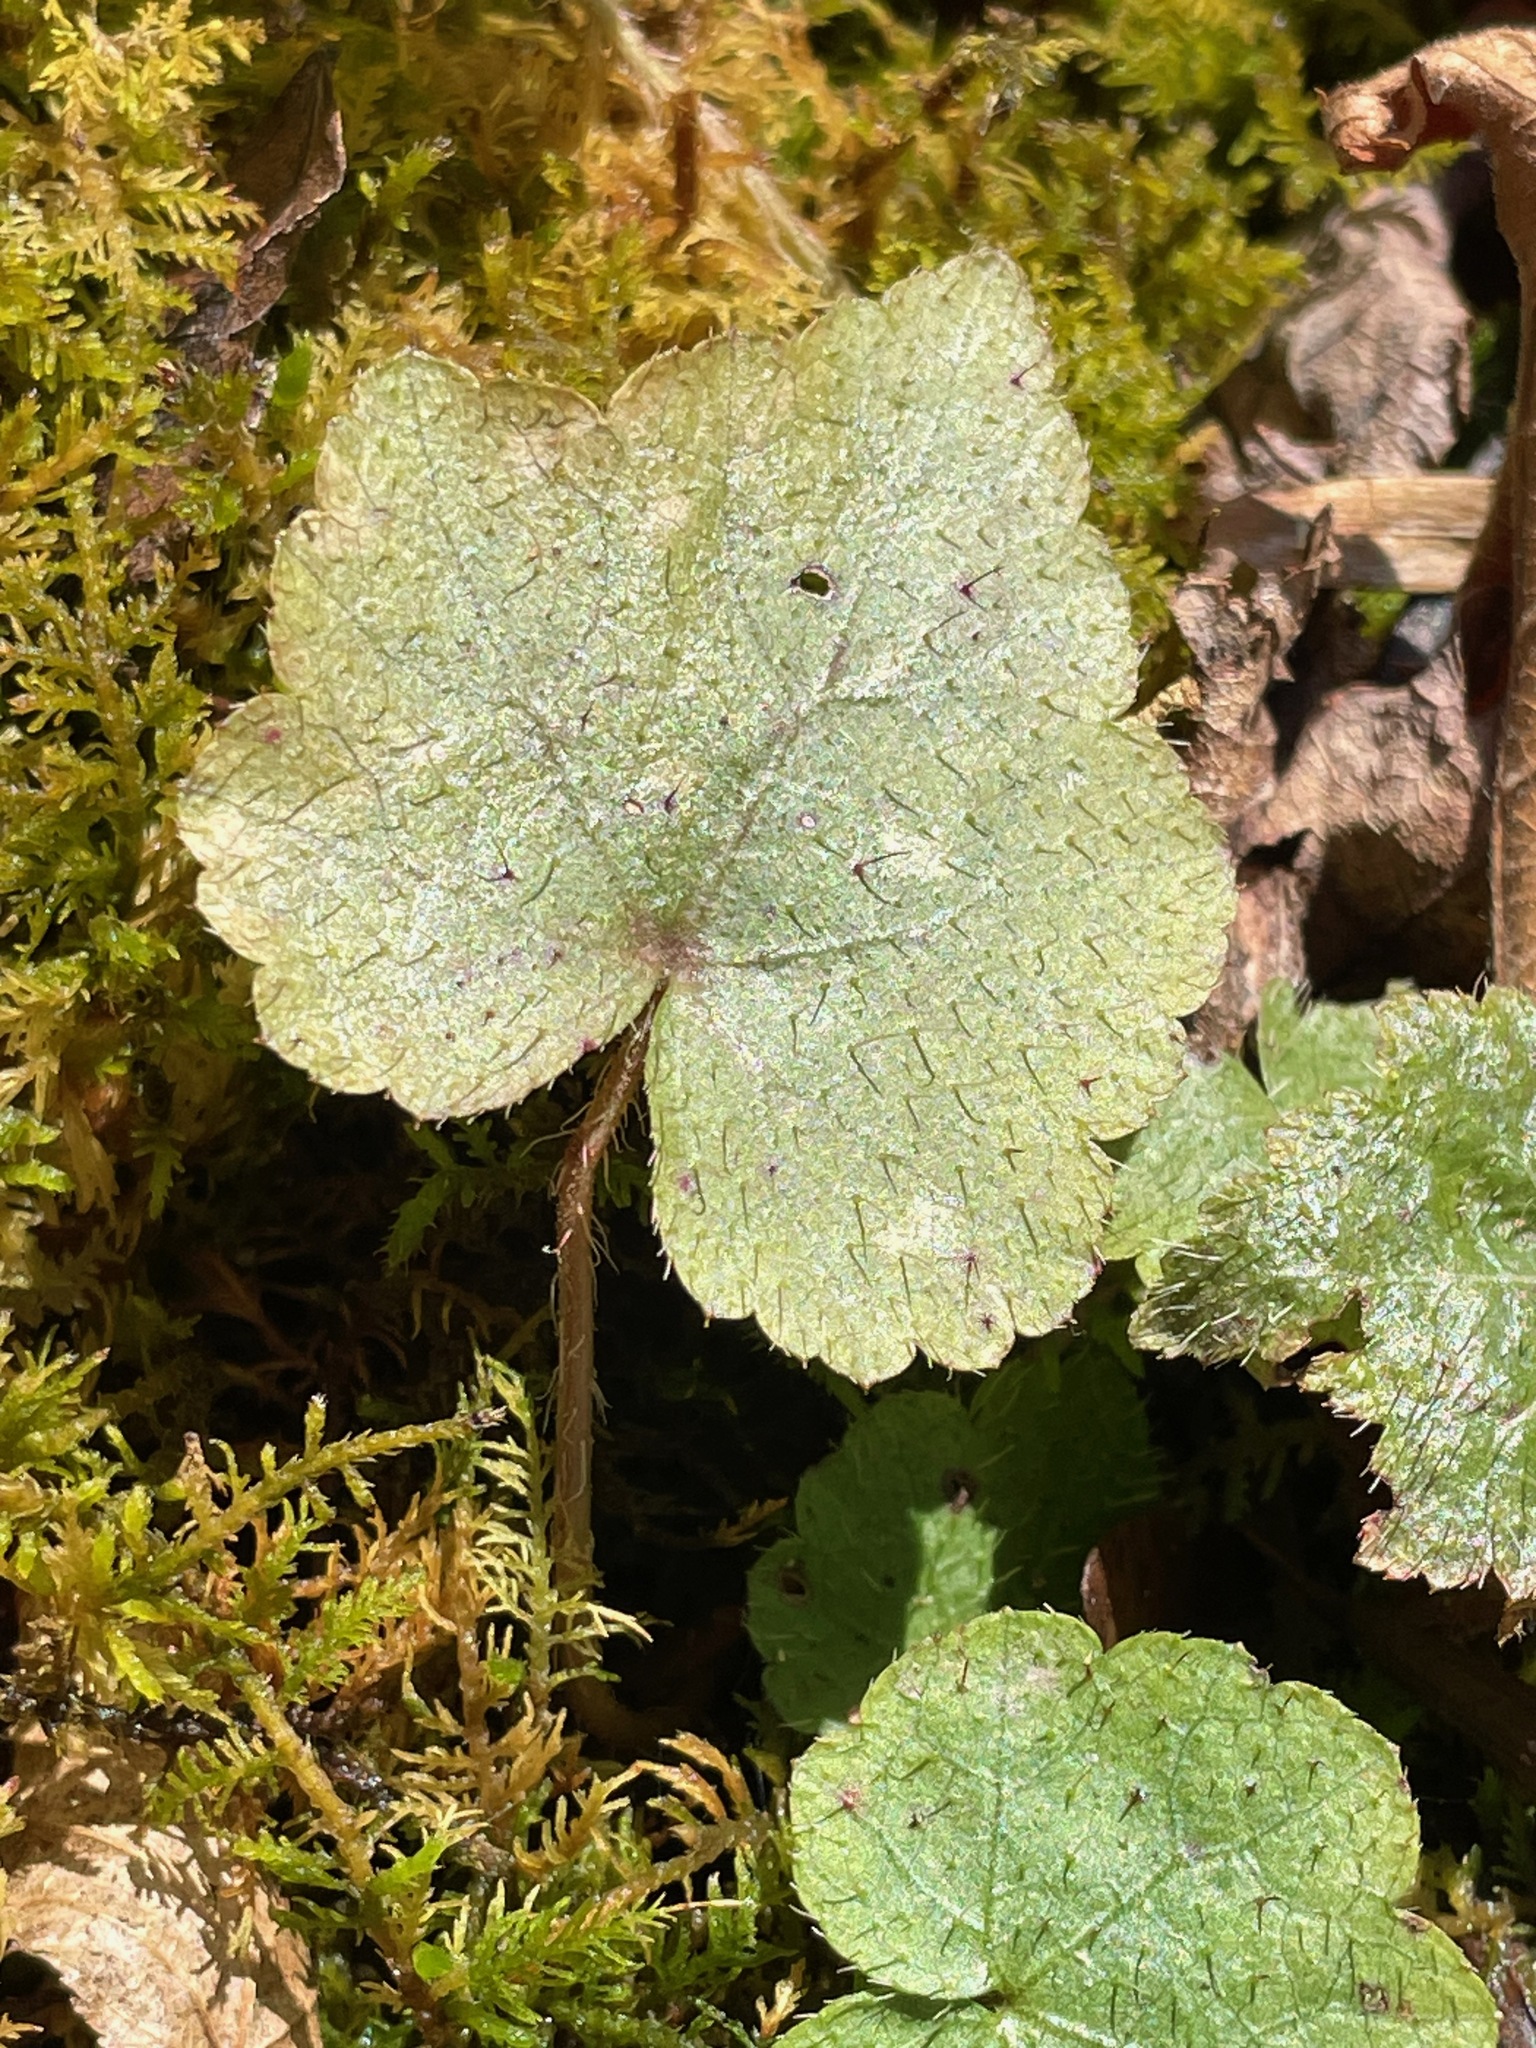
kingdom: Plantae
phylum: Tracheophyta
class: Magnoliopsida
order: Saxifragales
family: Saxifragaceae
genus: Mitella
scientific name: Mitella diphylla
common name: Coolwort
